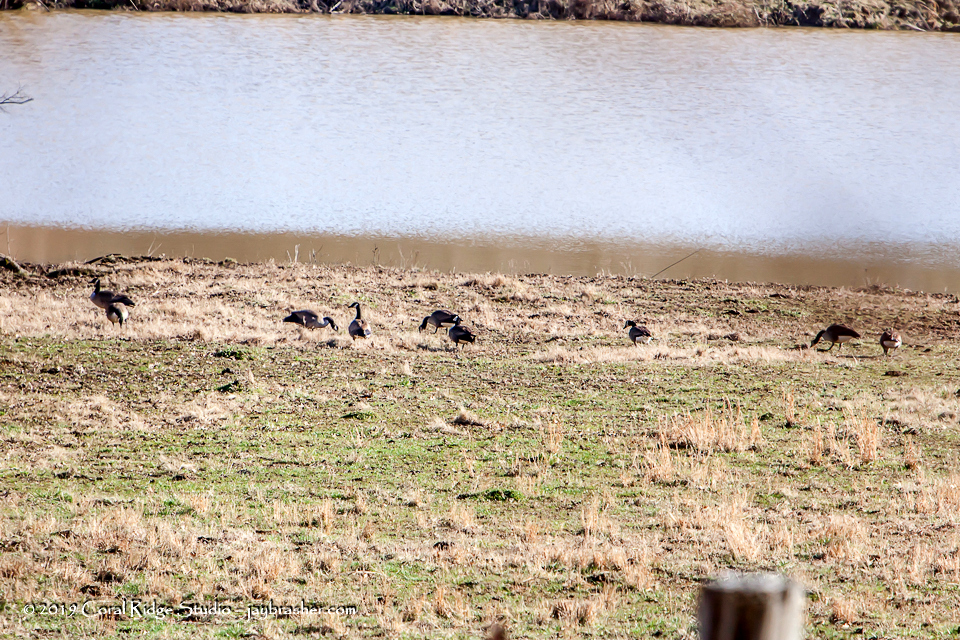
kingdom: Animalia
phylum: Chordata
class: Aves
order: Anseriformes
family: Anatidae
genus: Branta
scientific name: Branta canadensis
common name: Canada goose
